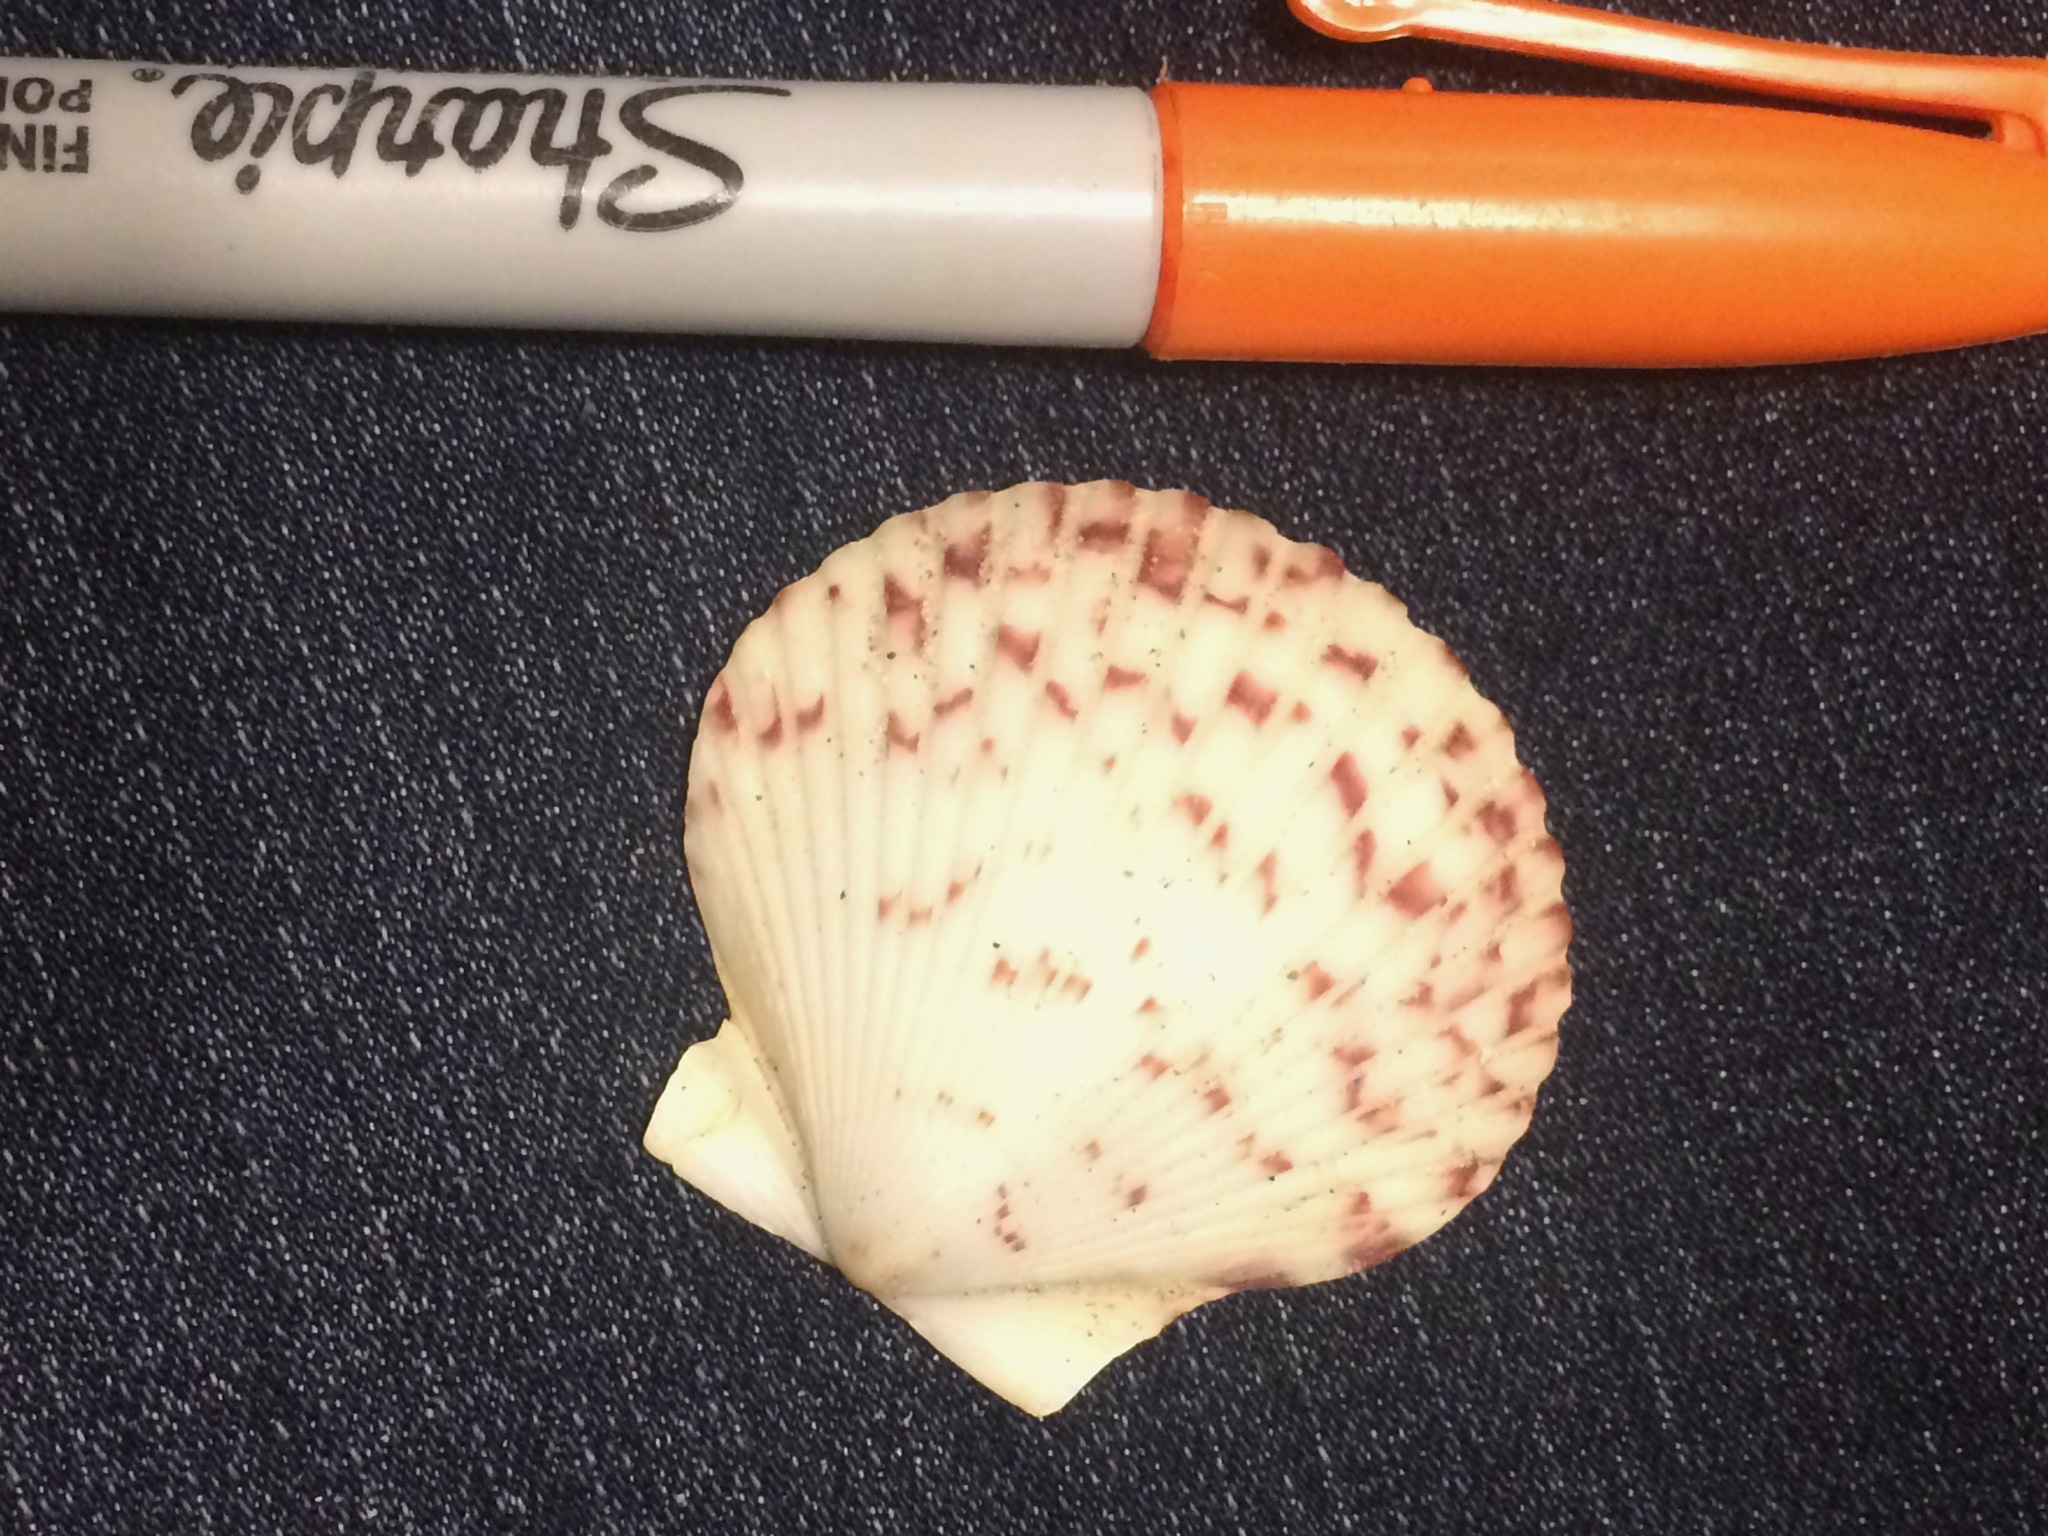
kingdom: Animalia
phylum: Mollusca
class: Bivalvia
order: Pectinida
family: Pectinidae
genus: Argopecten
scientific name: Argopecten gibbus
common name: Atlantic calico scallop
